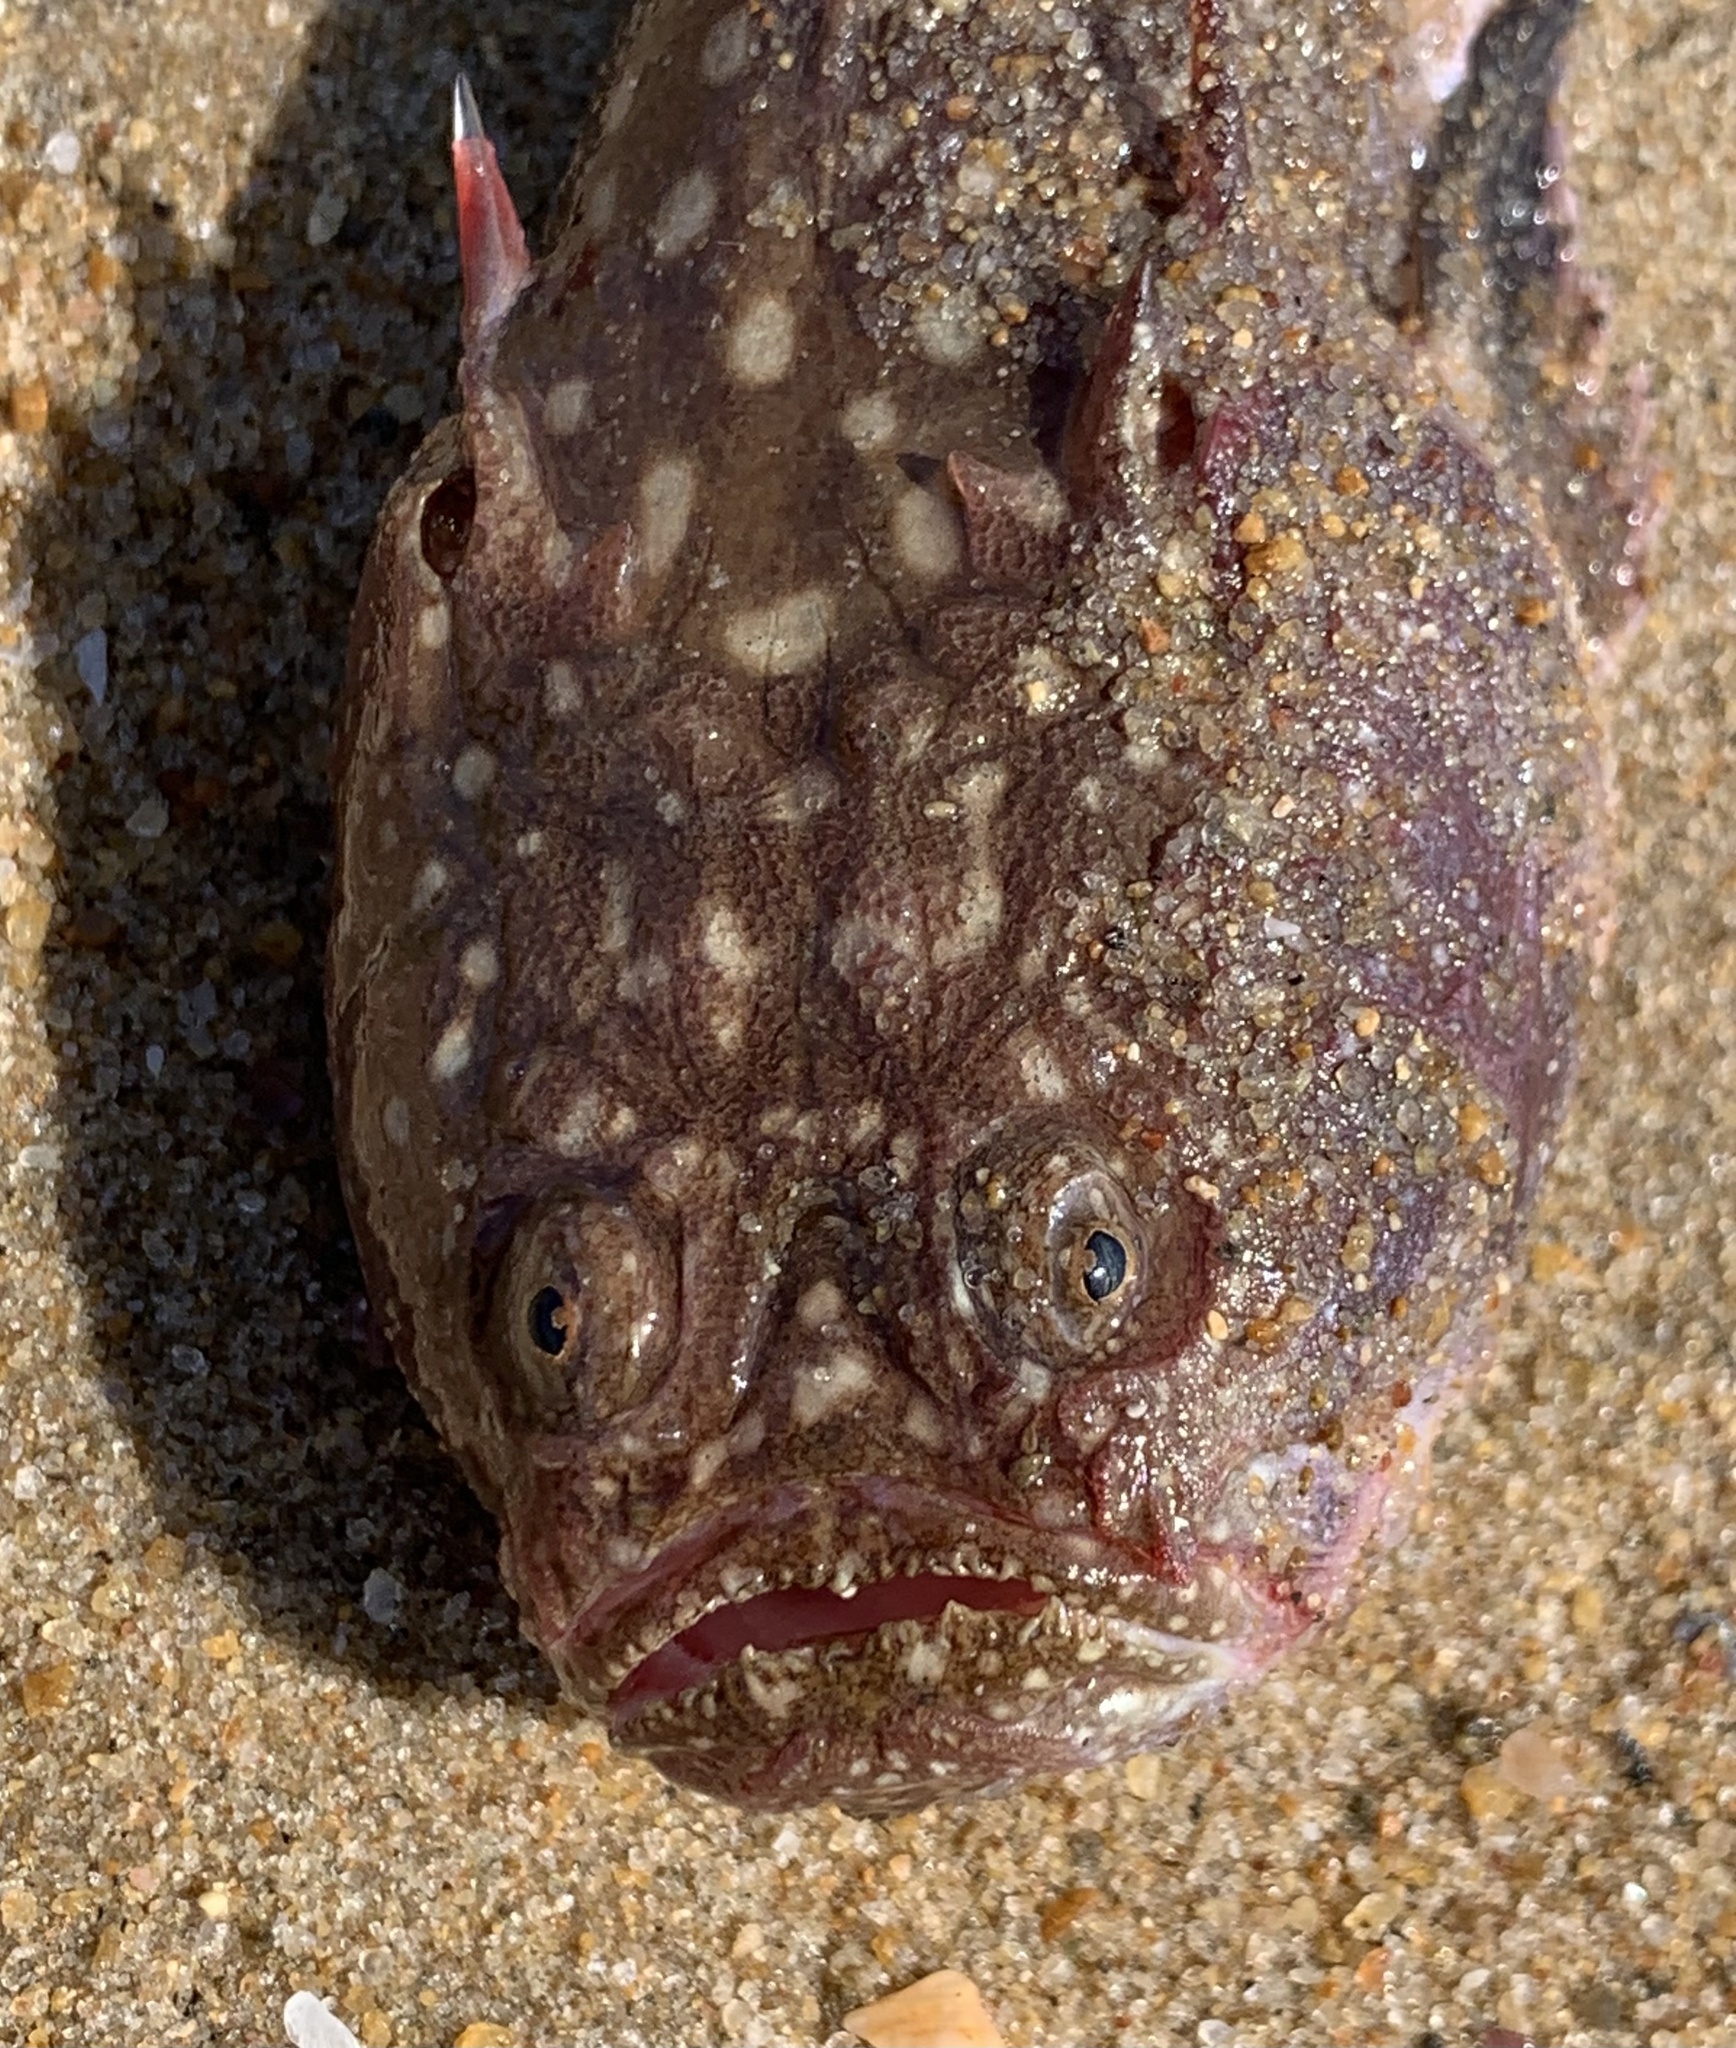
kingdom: Animalia
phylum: Chordata
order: Perciformes
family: Uranoscopidae
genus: Uranoscopus
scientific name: Uranoscopus guttatus
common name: Dollfus' stargrazer
